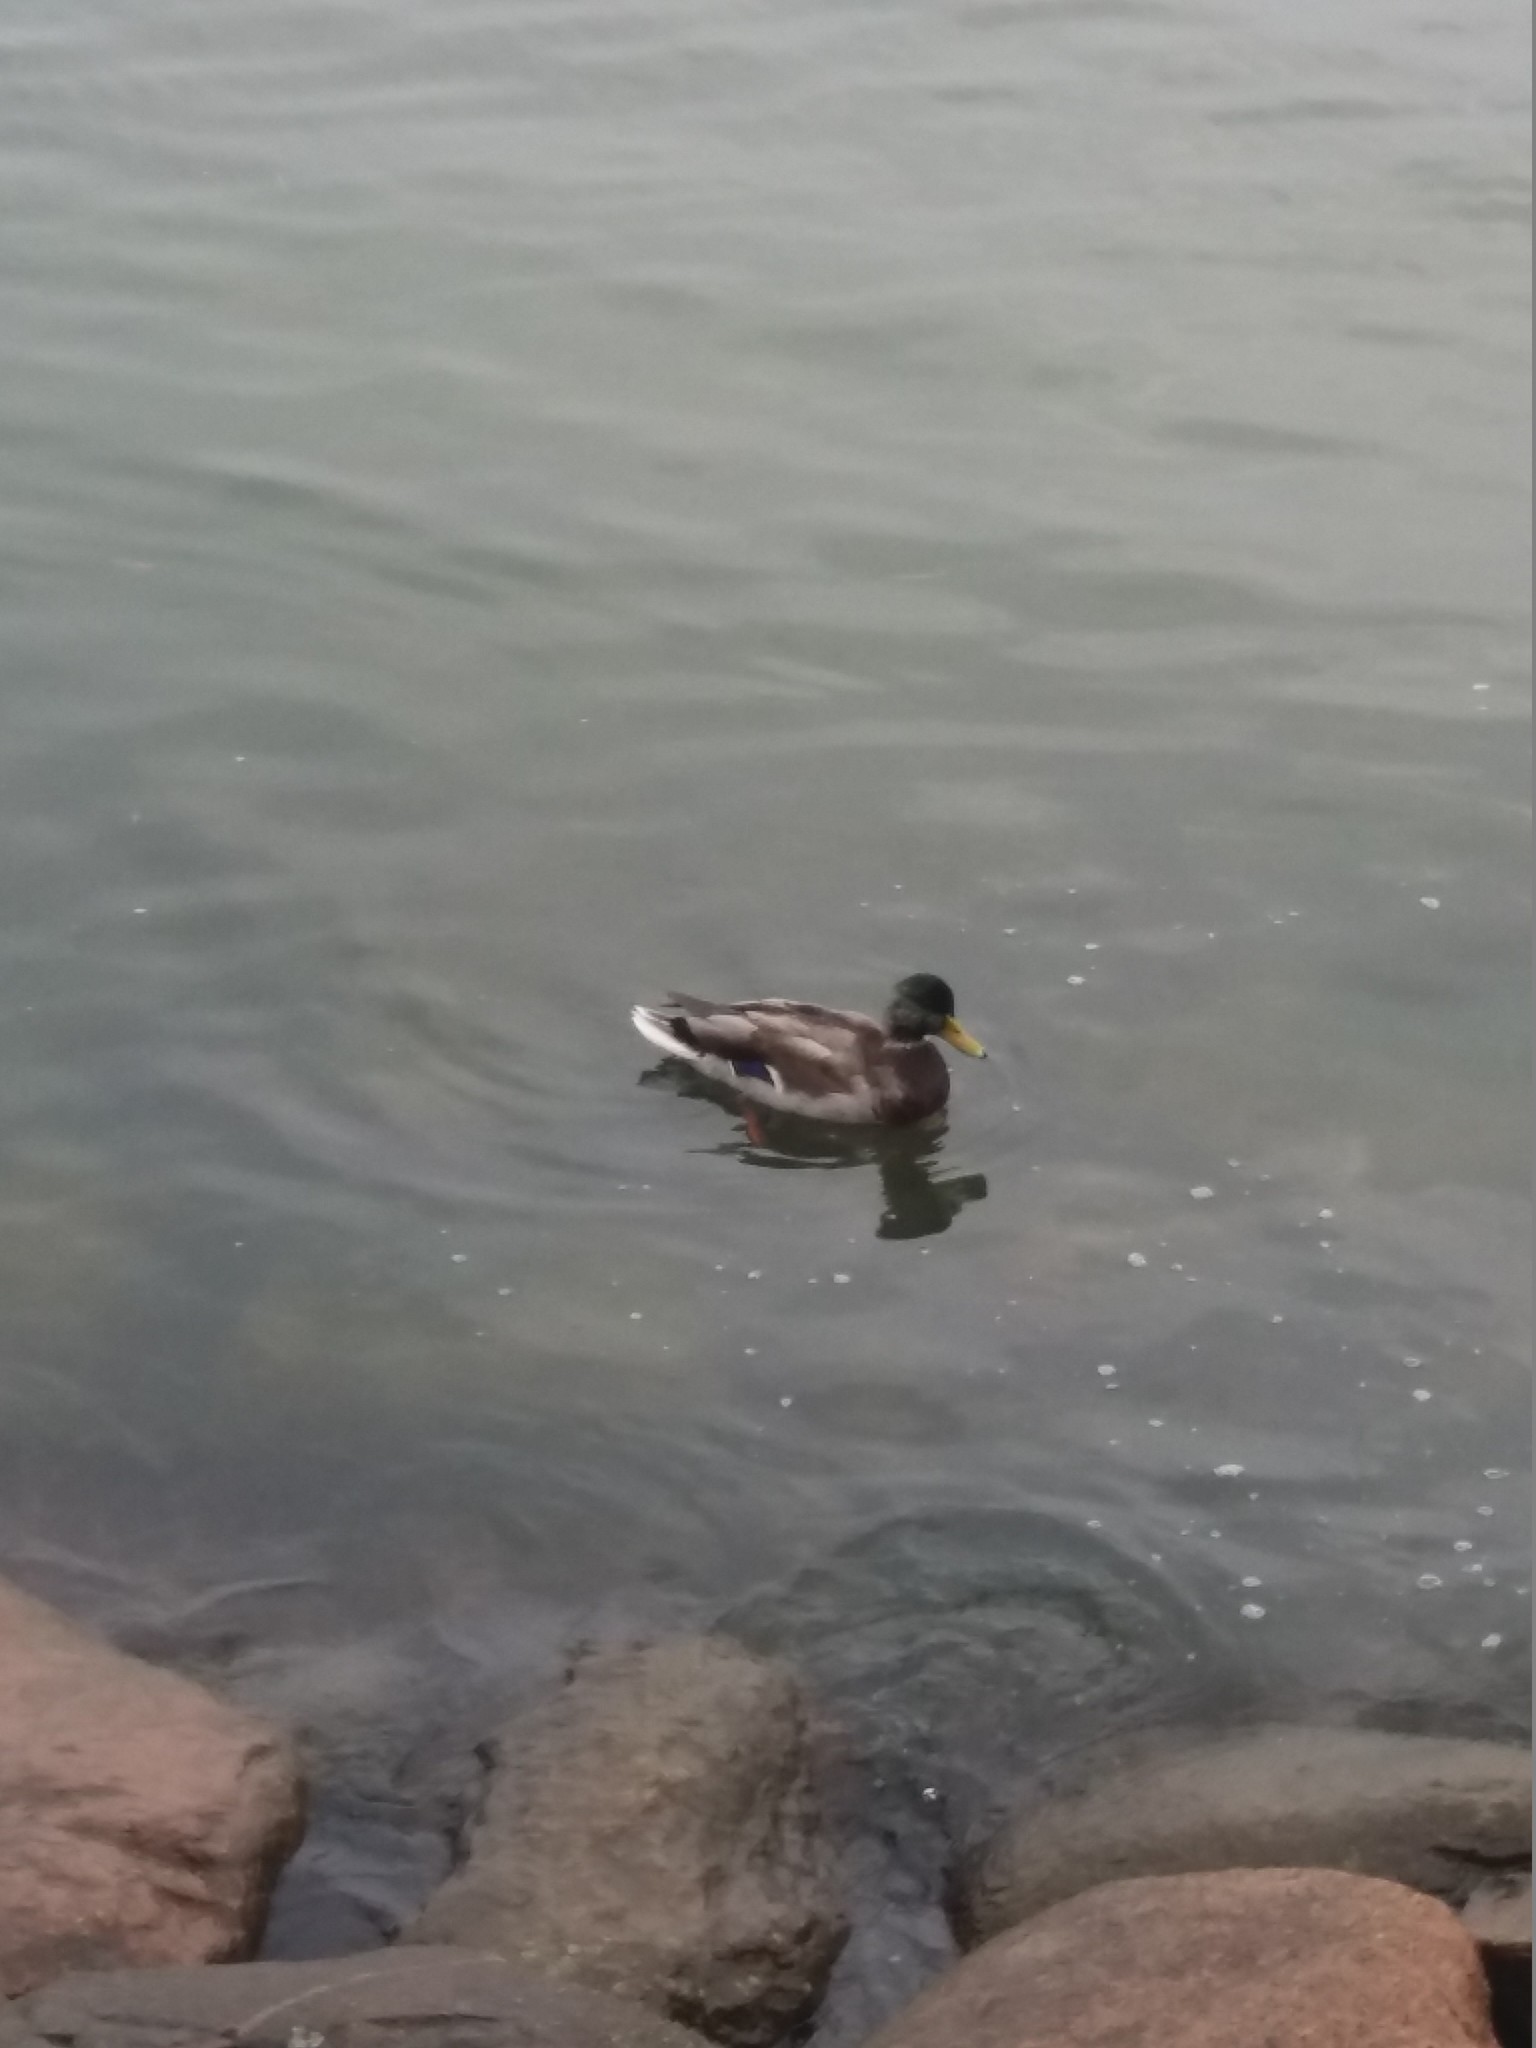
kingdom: Animalia
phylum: Chordata
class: Aves
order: Anseriformes
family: Anatidae
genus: Anas
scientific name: Anas platyrhynchos
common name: Mallard
